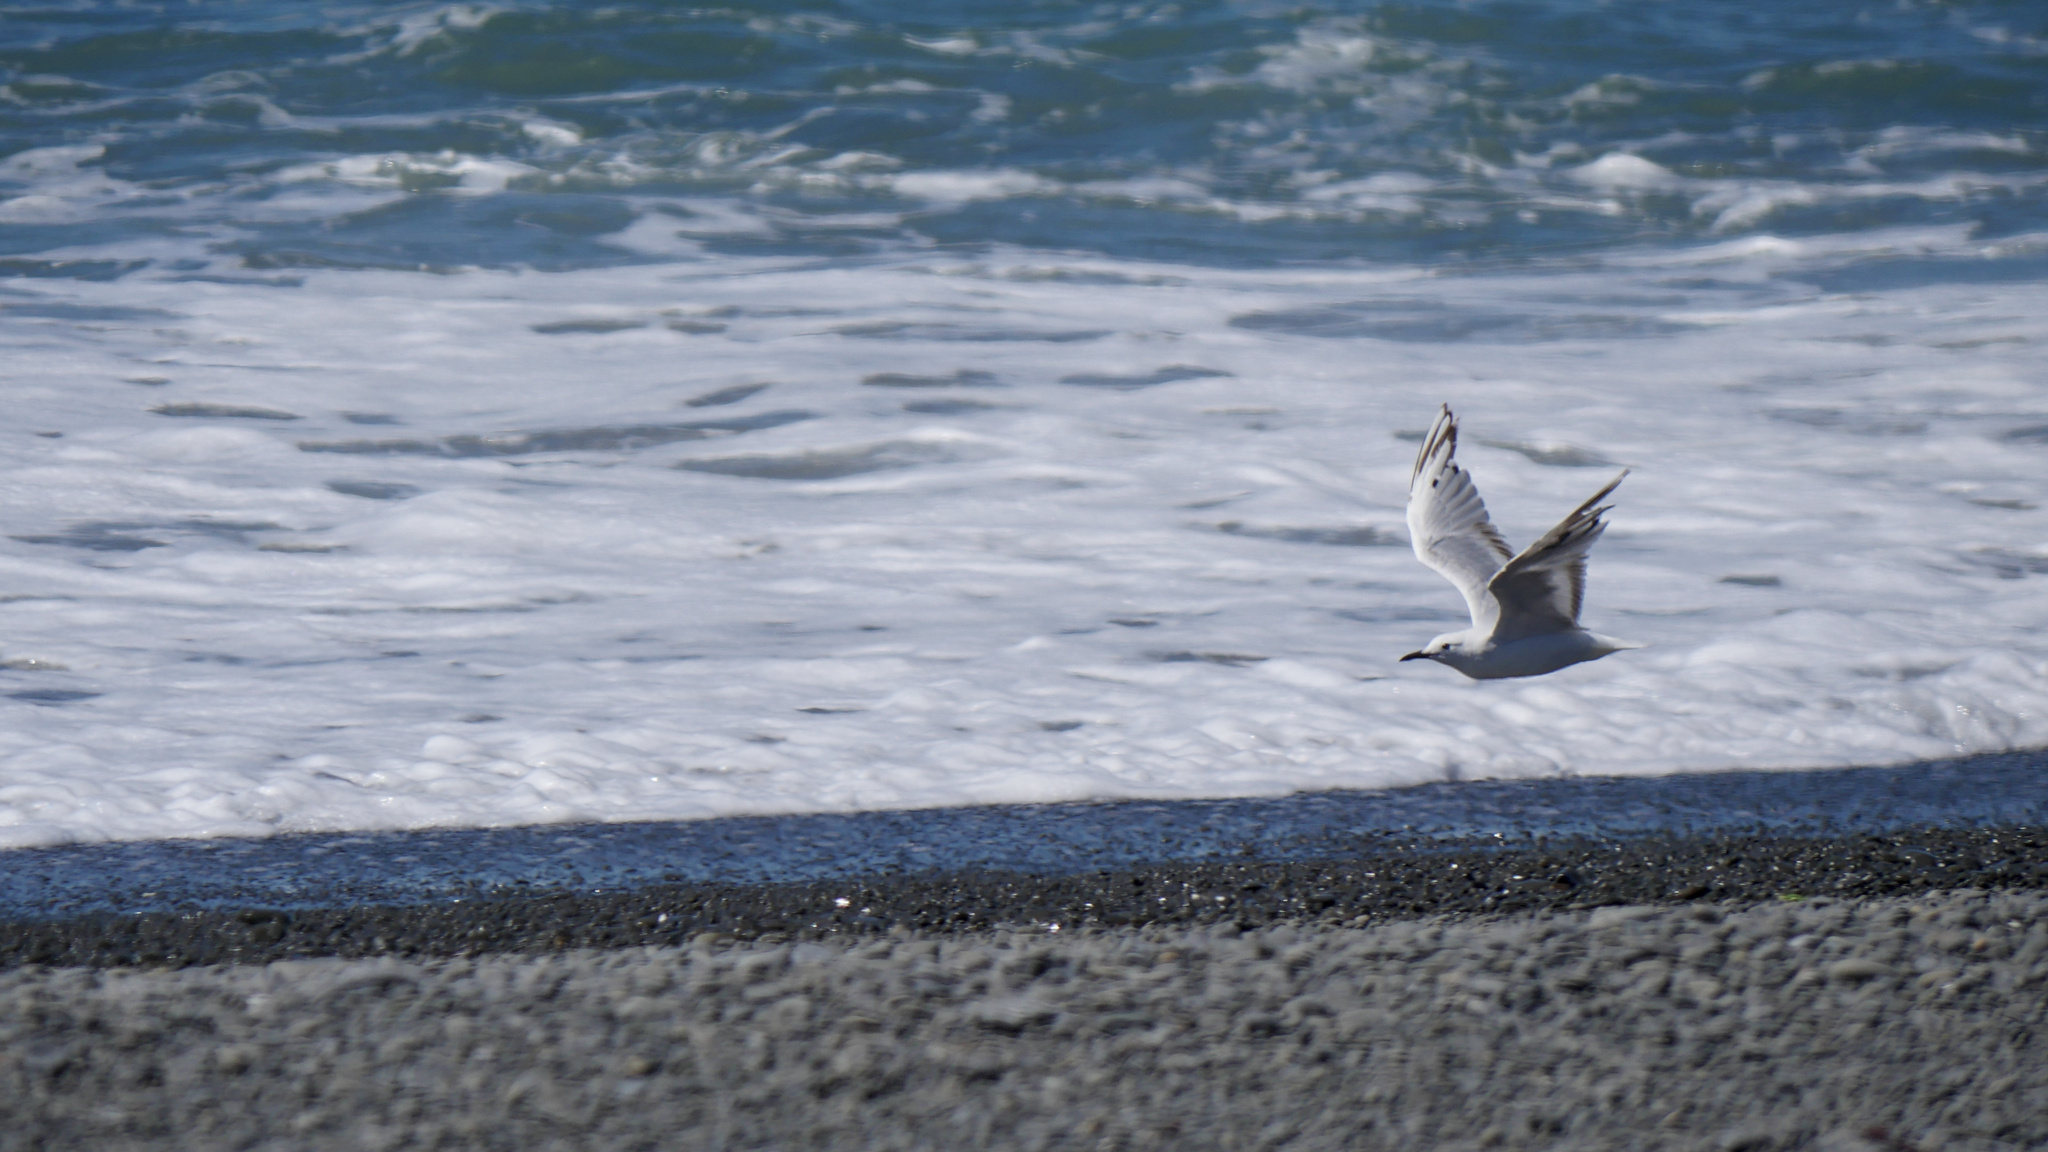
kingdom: Animalia
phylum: Chordata
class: Aves
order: Charadriiformes
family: Laridae
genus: Chroicocephalus
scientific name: Chroicocephalus bulleri
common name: Black-billed gull
